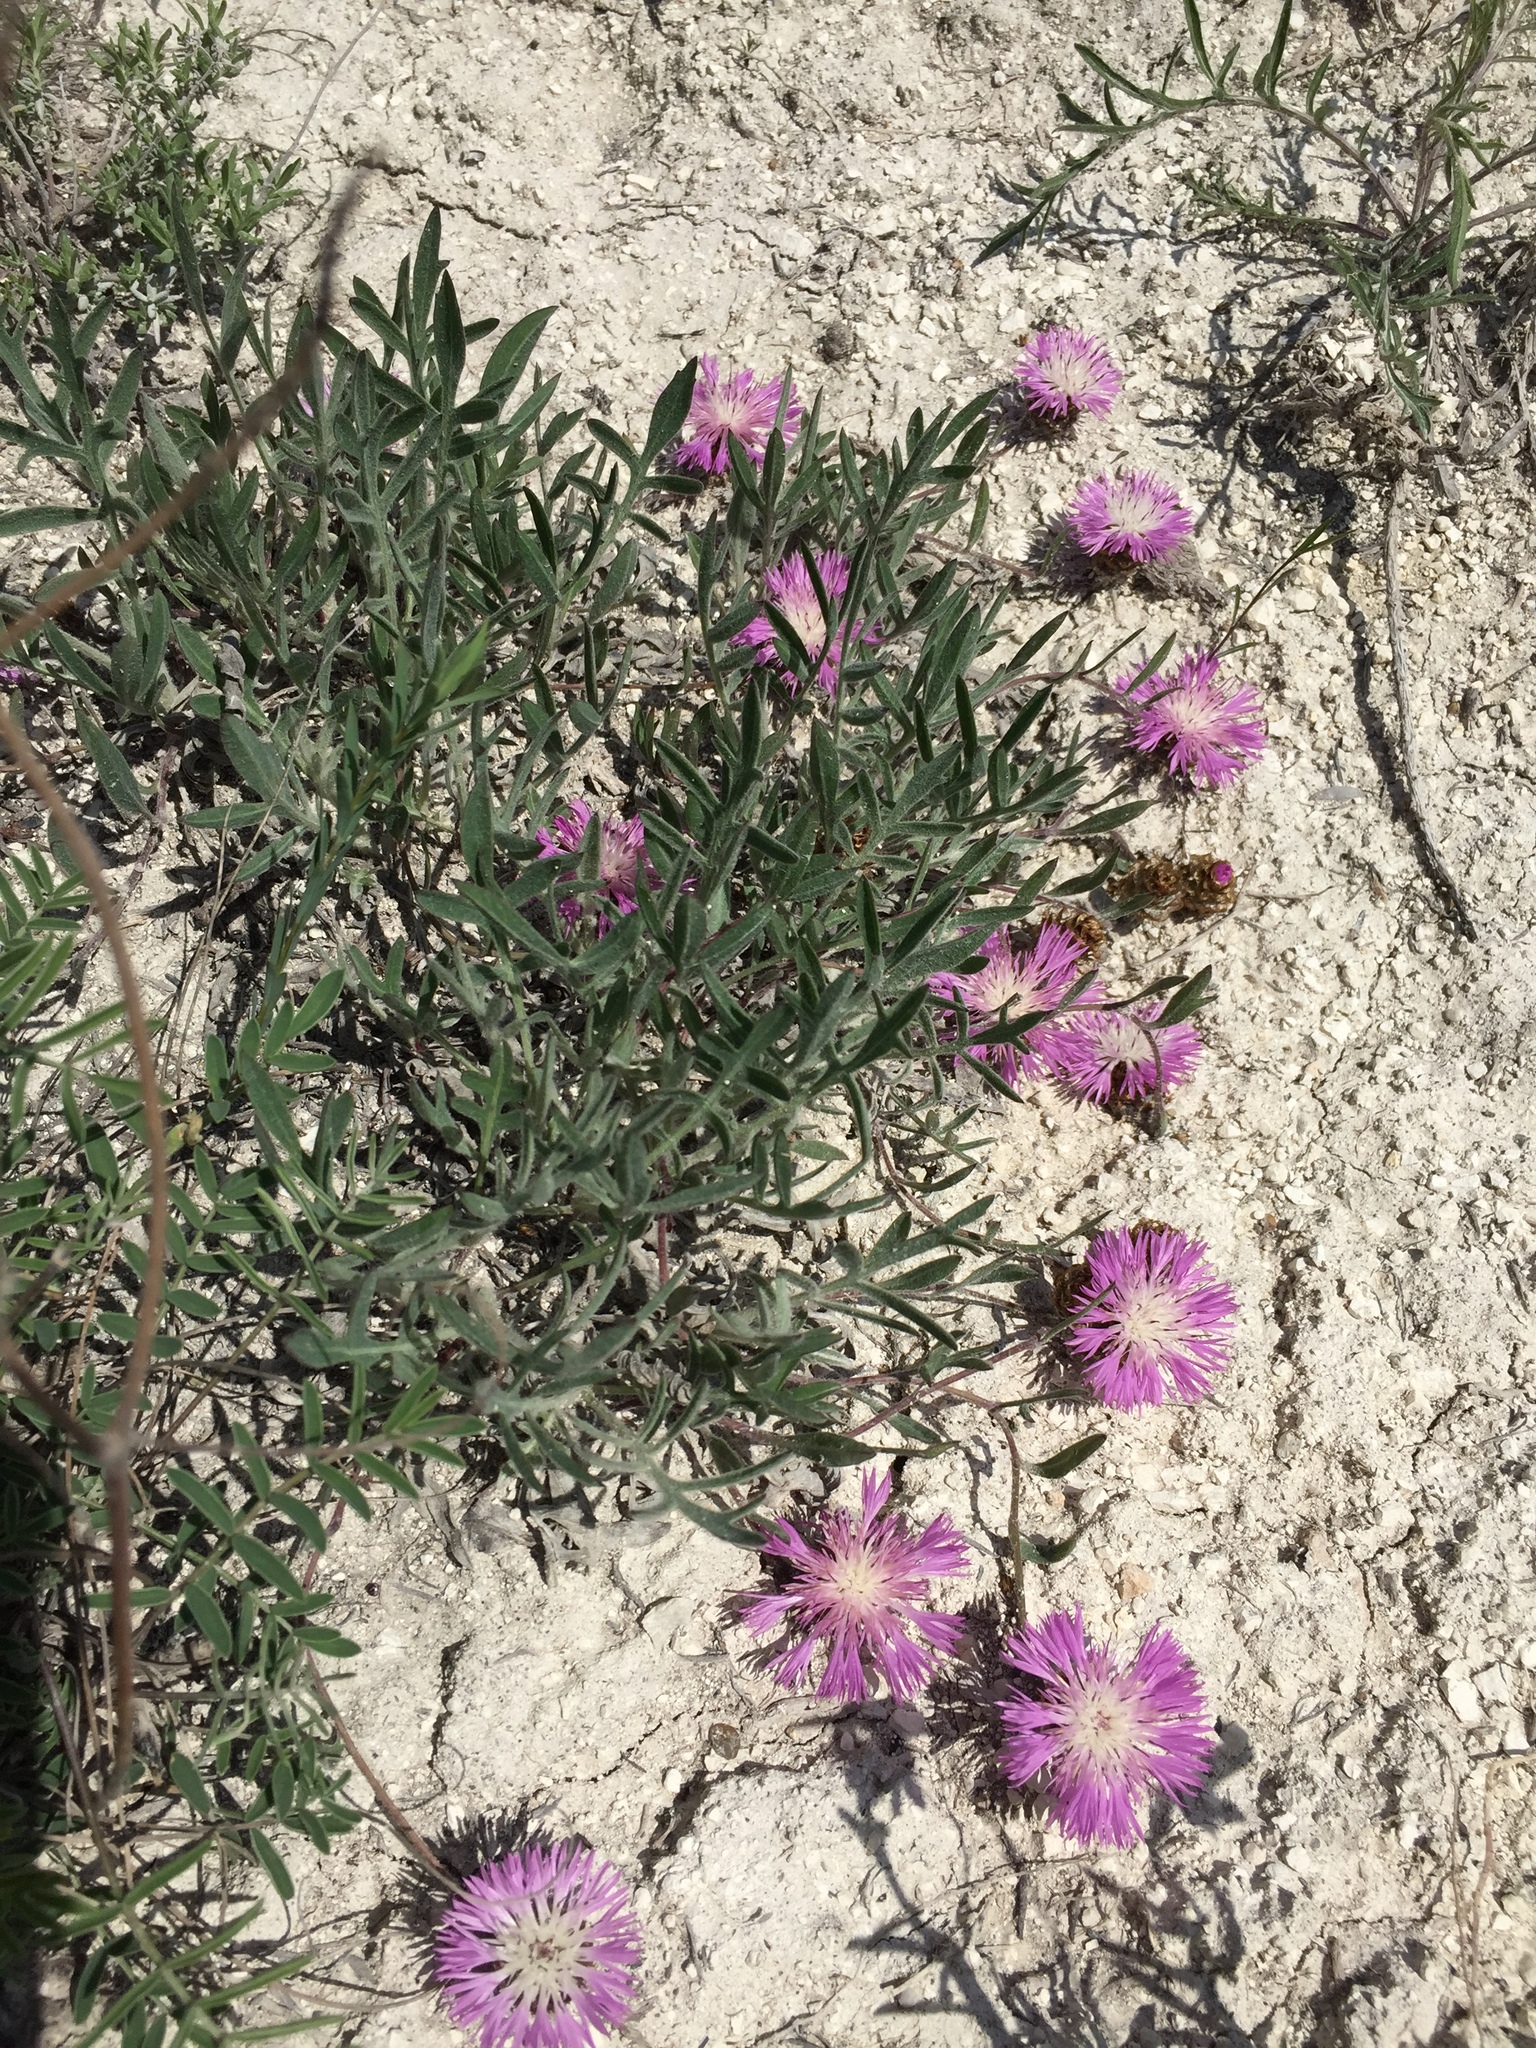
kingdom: Plantae
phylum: Tracheophyta
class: Magnoliopsida
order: Asterales
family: Asteraceae
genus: Psephellus
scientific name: Psephellus marschallianus
